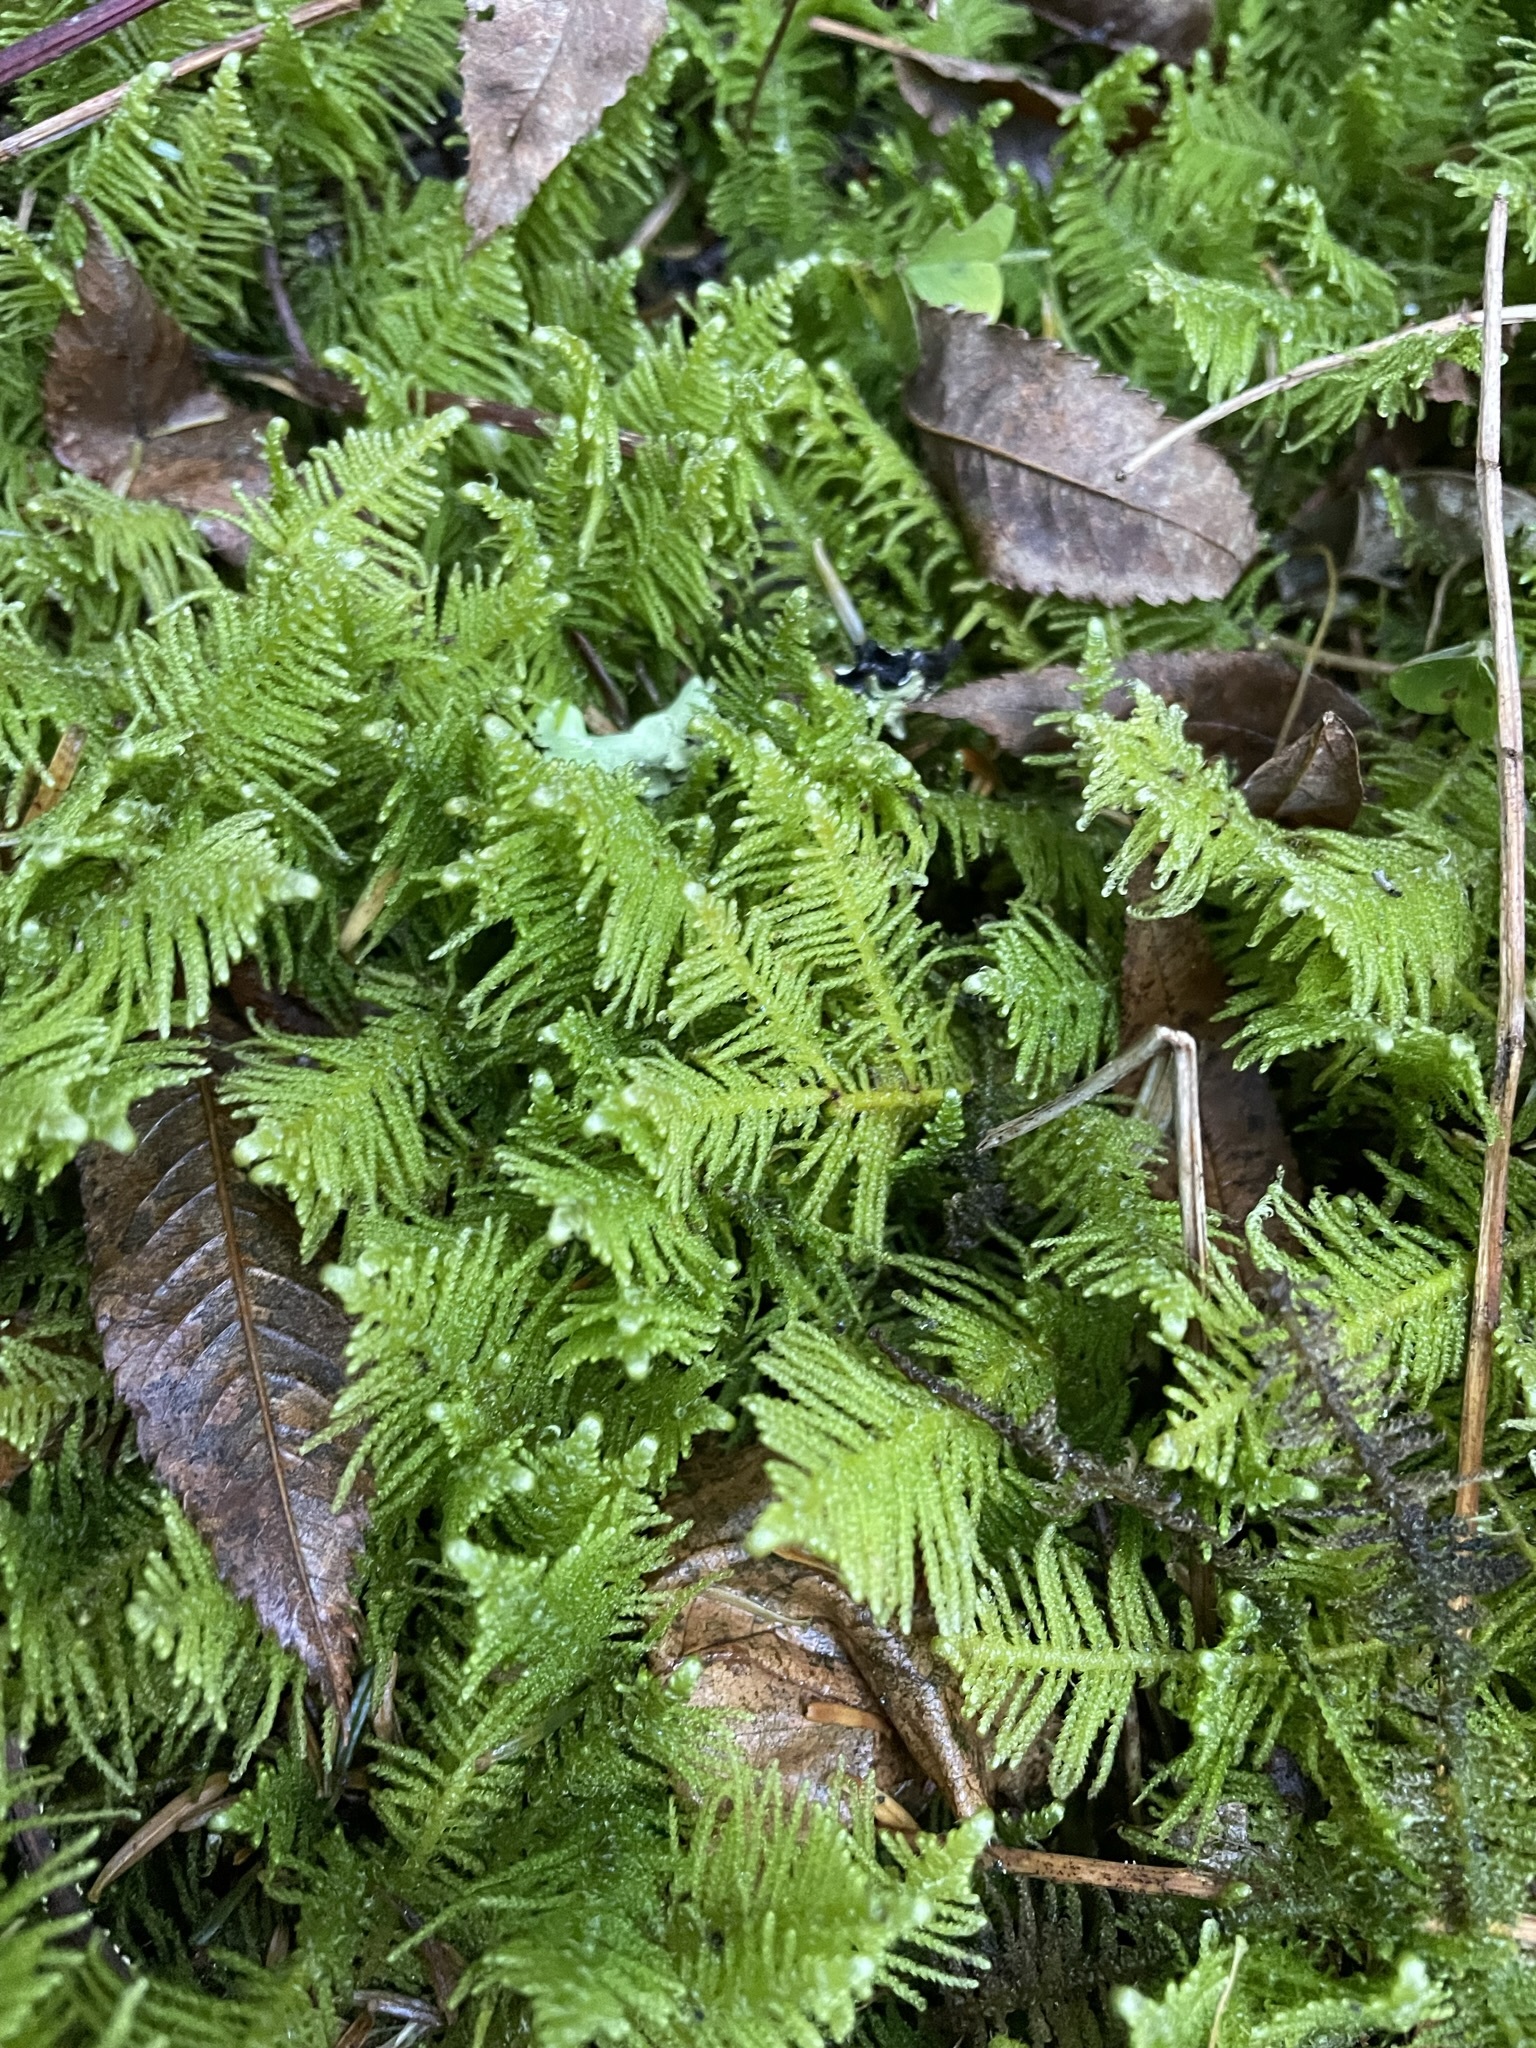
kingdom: Plantae
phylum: Bryophyta
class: Bryopsida
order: Hypnales
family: Pylaisiaceae
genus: Ptilium
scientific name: Ptilium crista-castrensis
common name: Knight's plume moss
